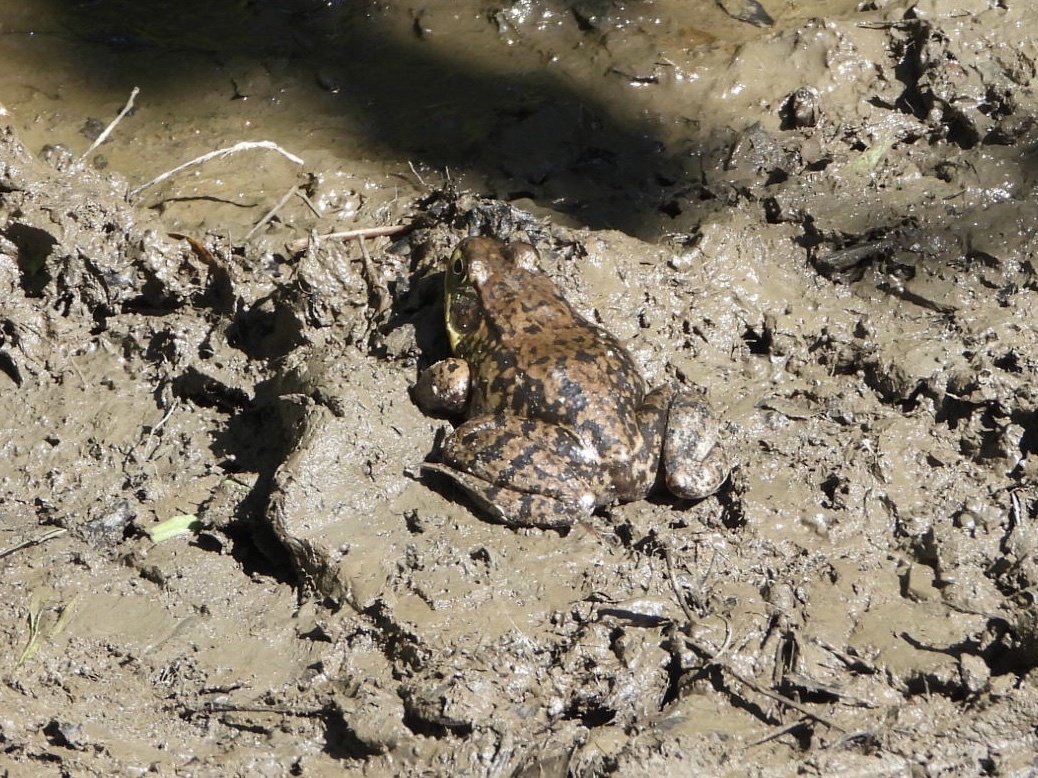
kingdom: Animalia
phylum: Chordata
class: Amphibia
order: Anura
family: Ranidae
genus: Lithobates
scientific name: Lithobates catesbeianus
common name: American bullfrog
